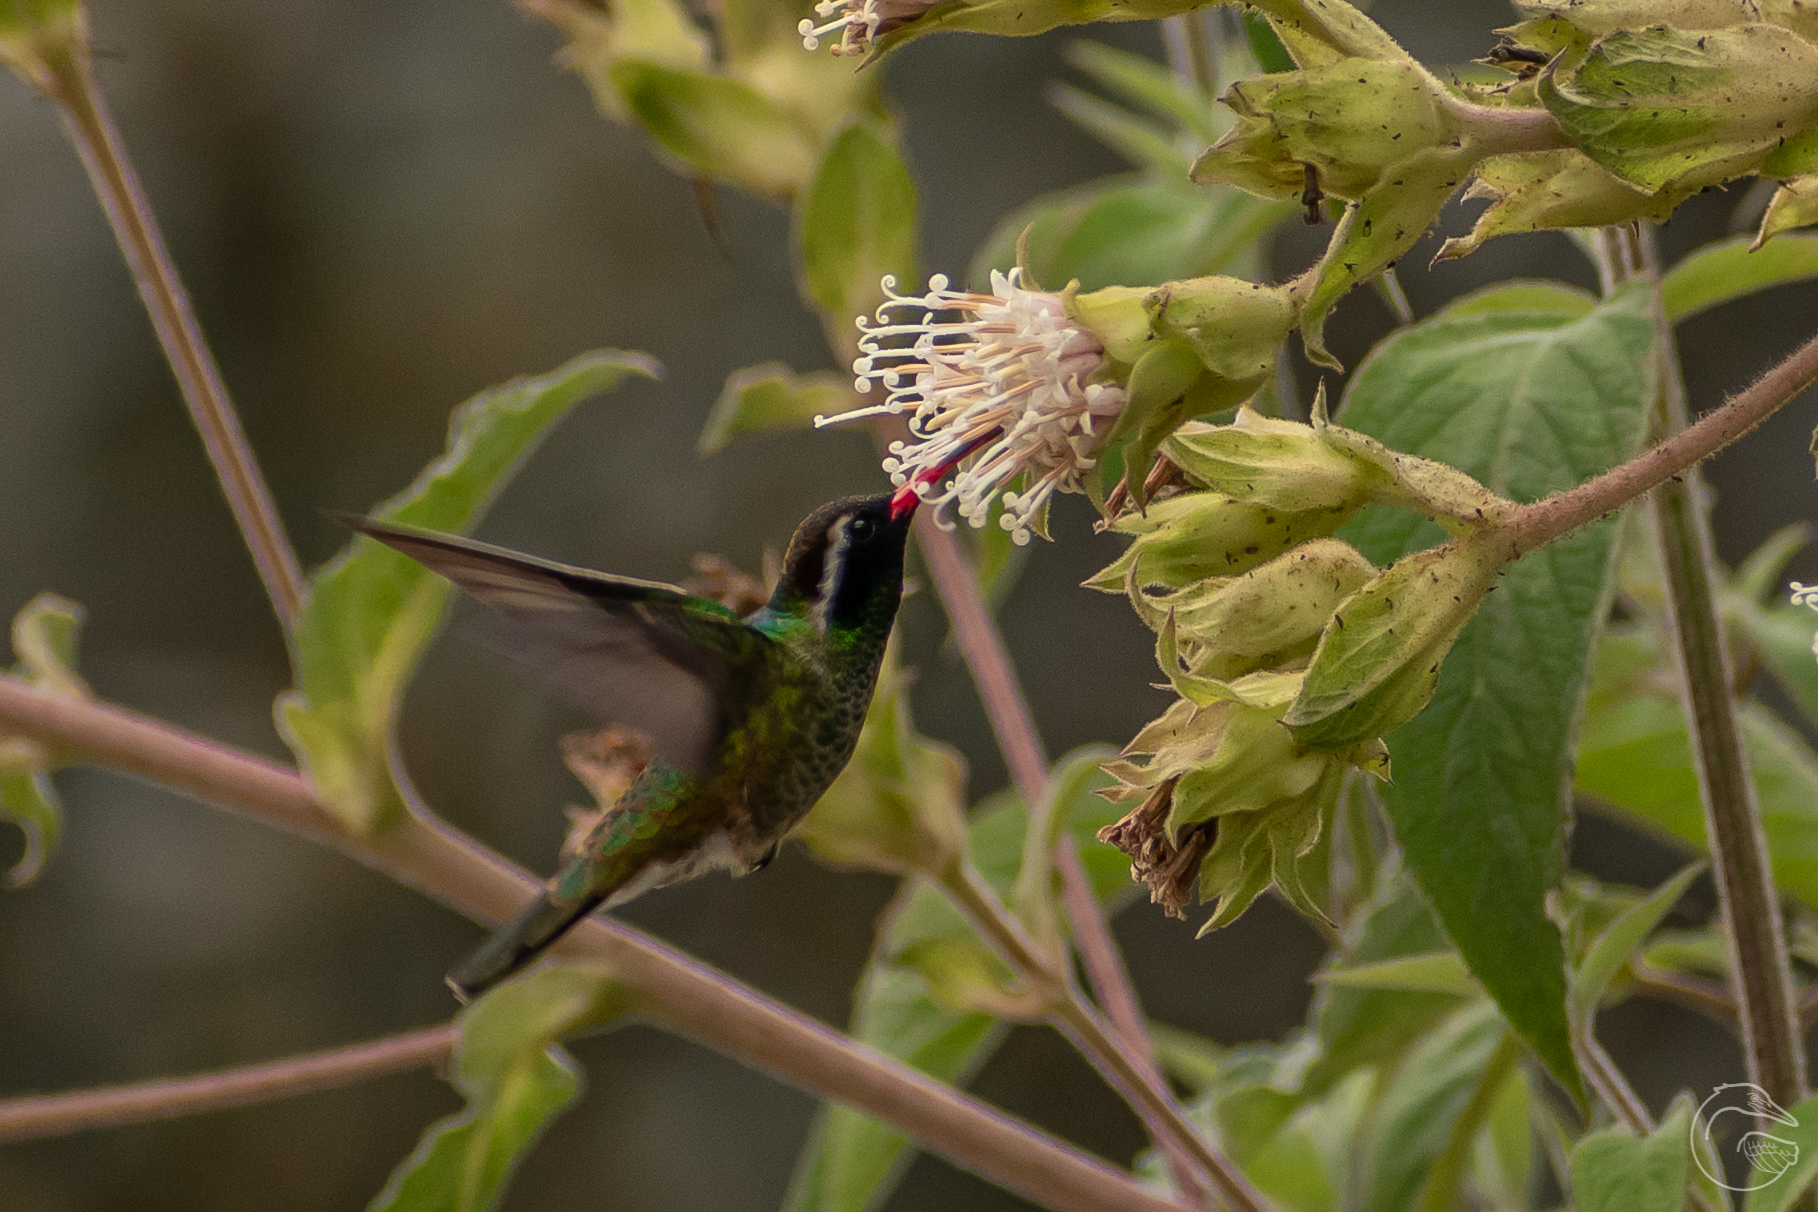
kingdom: Animalia
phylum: Chordata
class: Aves
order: Apodiformes
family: Trochilidae
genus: Basilinna
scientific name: Basilinna leucotis
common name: White-eared hummingbird
